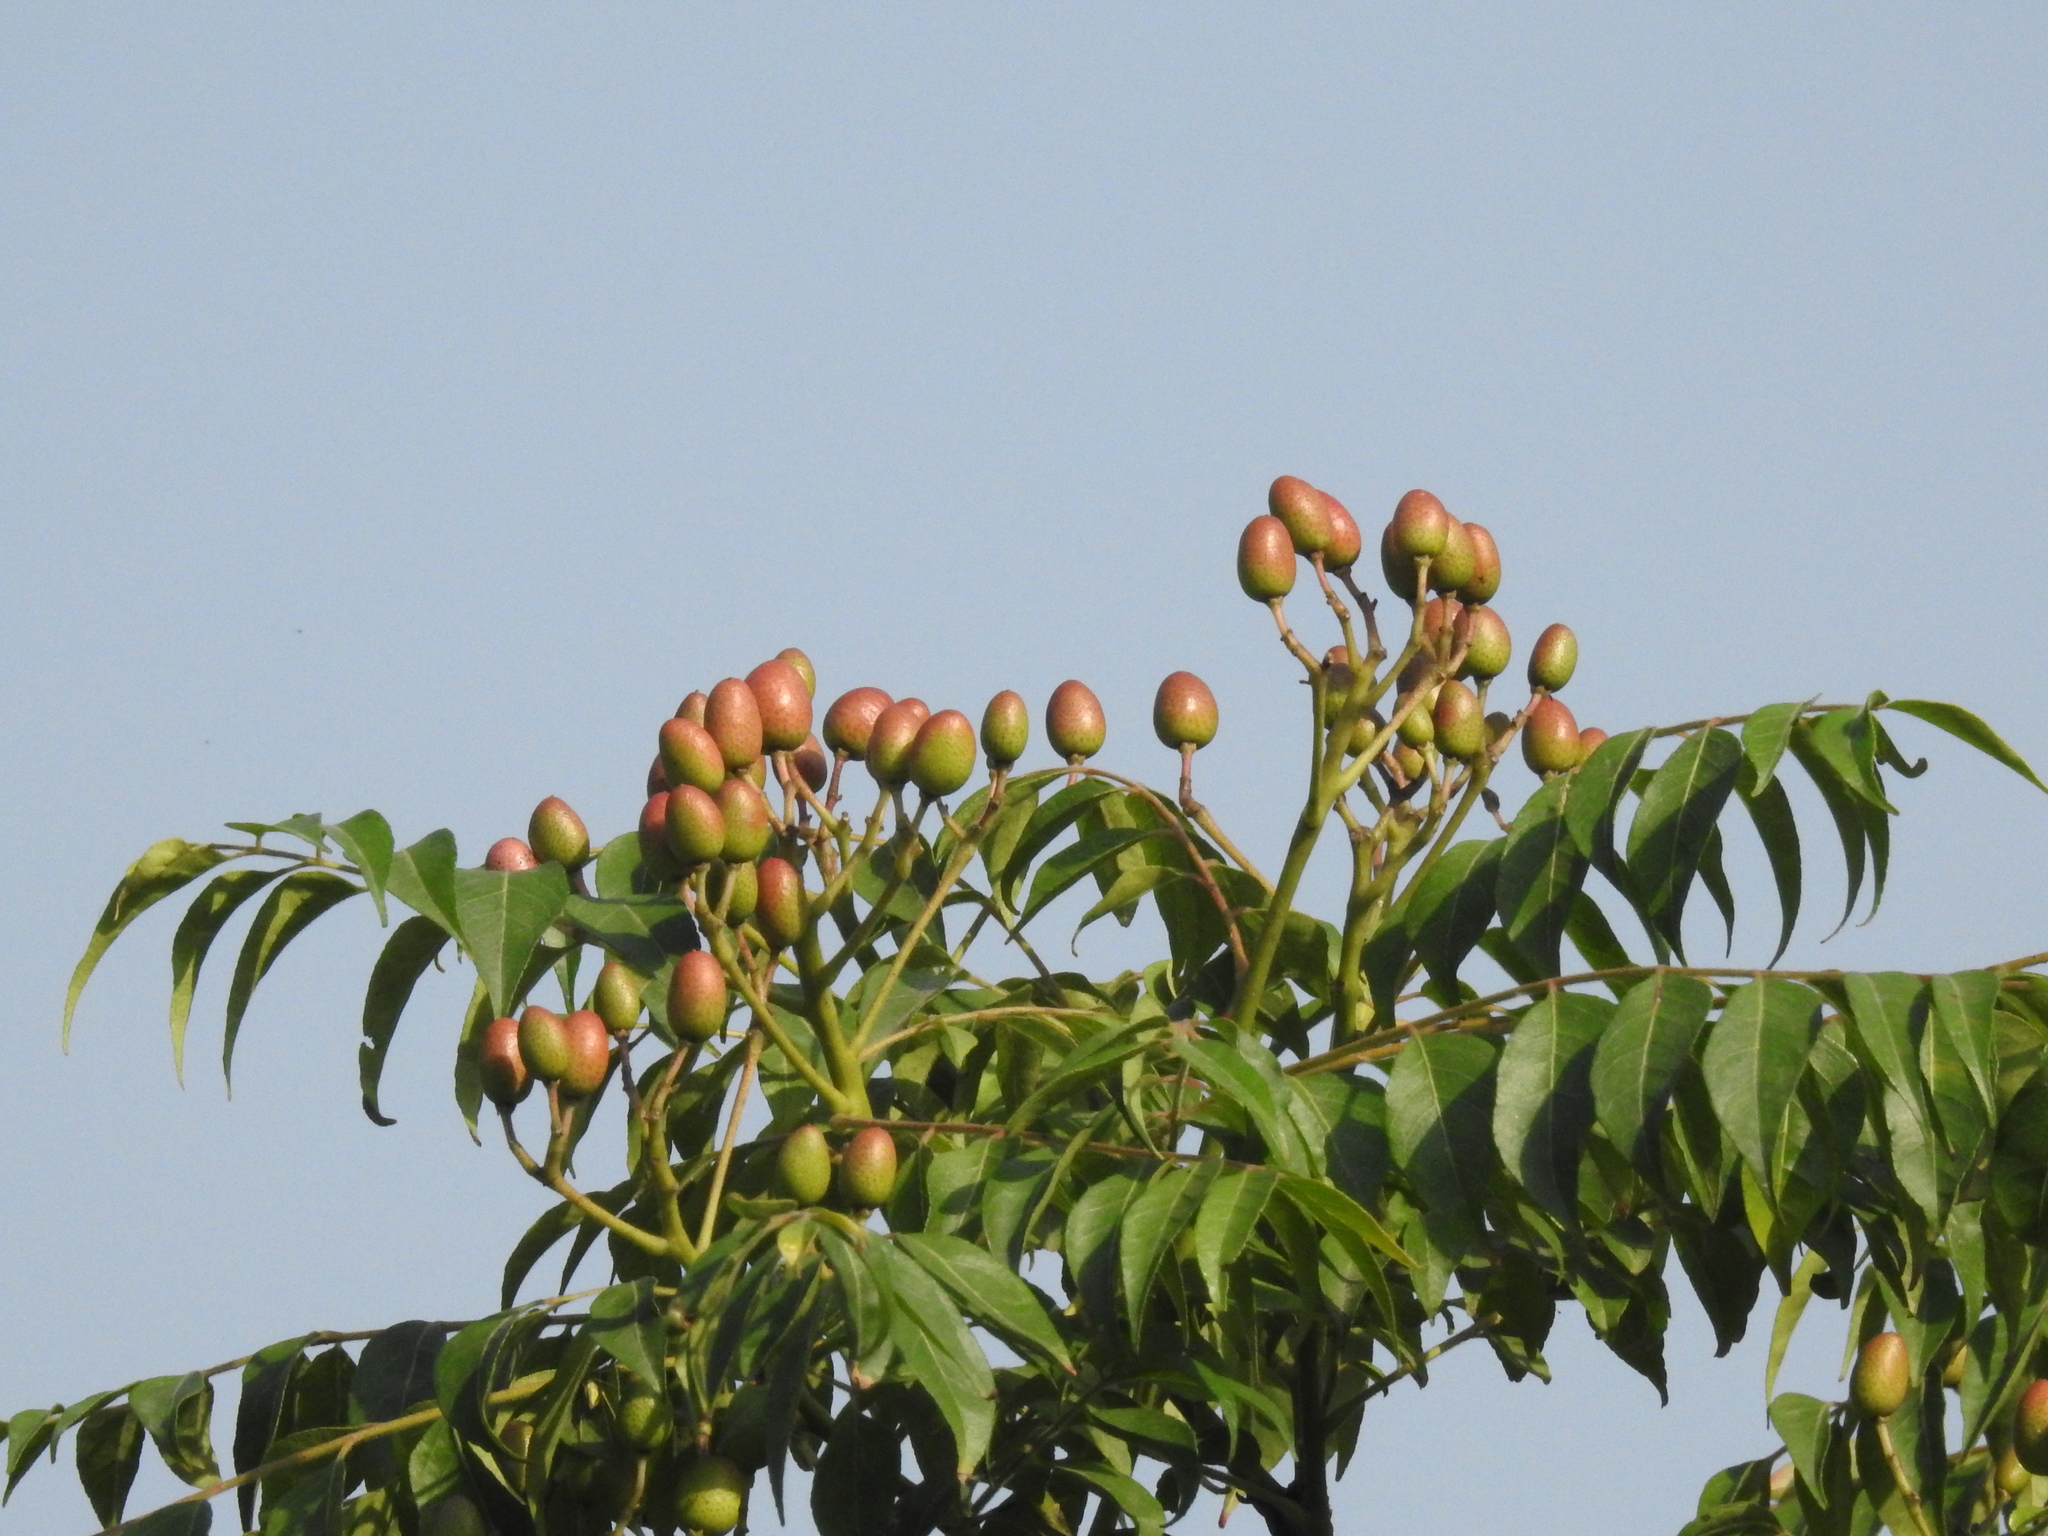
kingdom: Plantae
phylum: Tracheophyta
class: Magnoliopsida
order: Sapindales
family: Rutaceae
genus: Murraya
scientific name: Murraya koenigii
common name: Curry-plant
